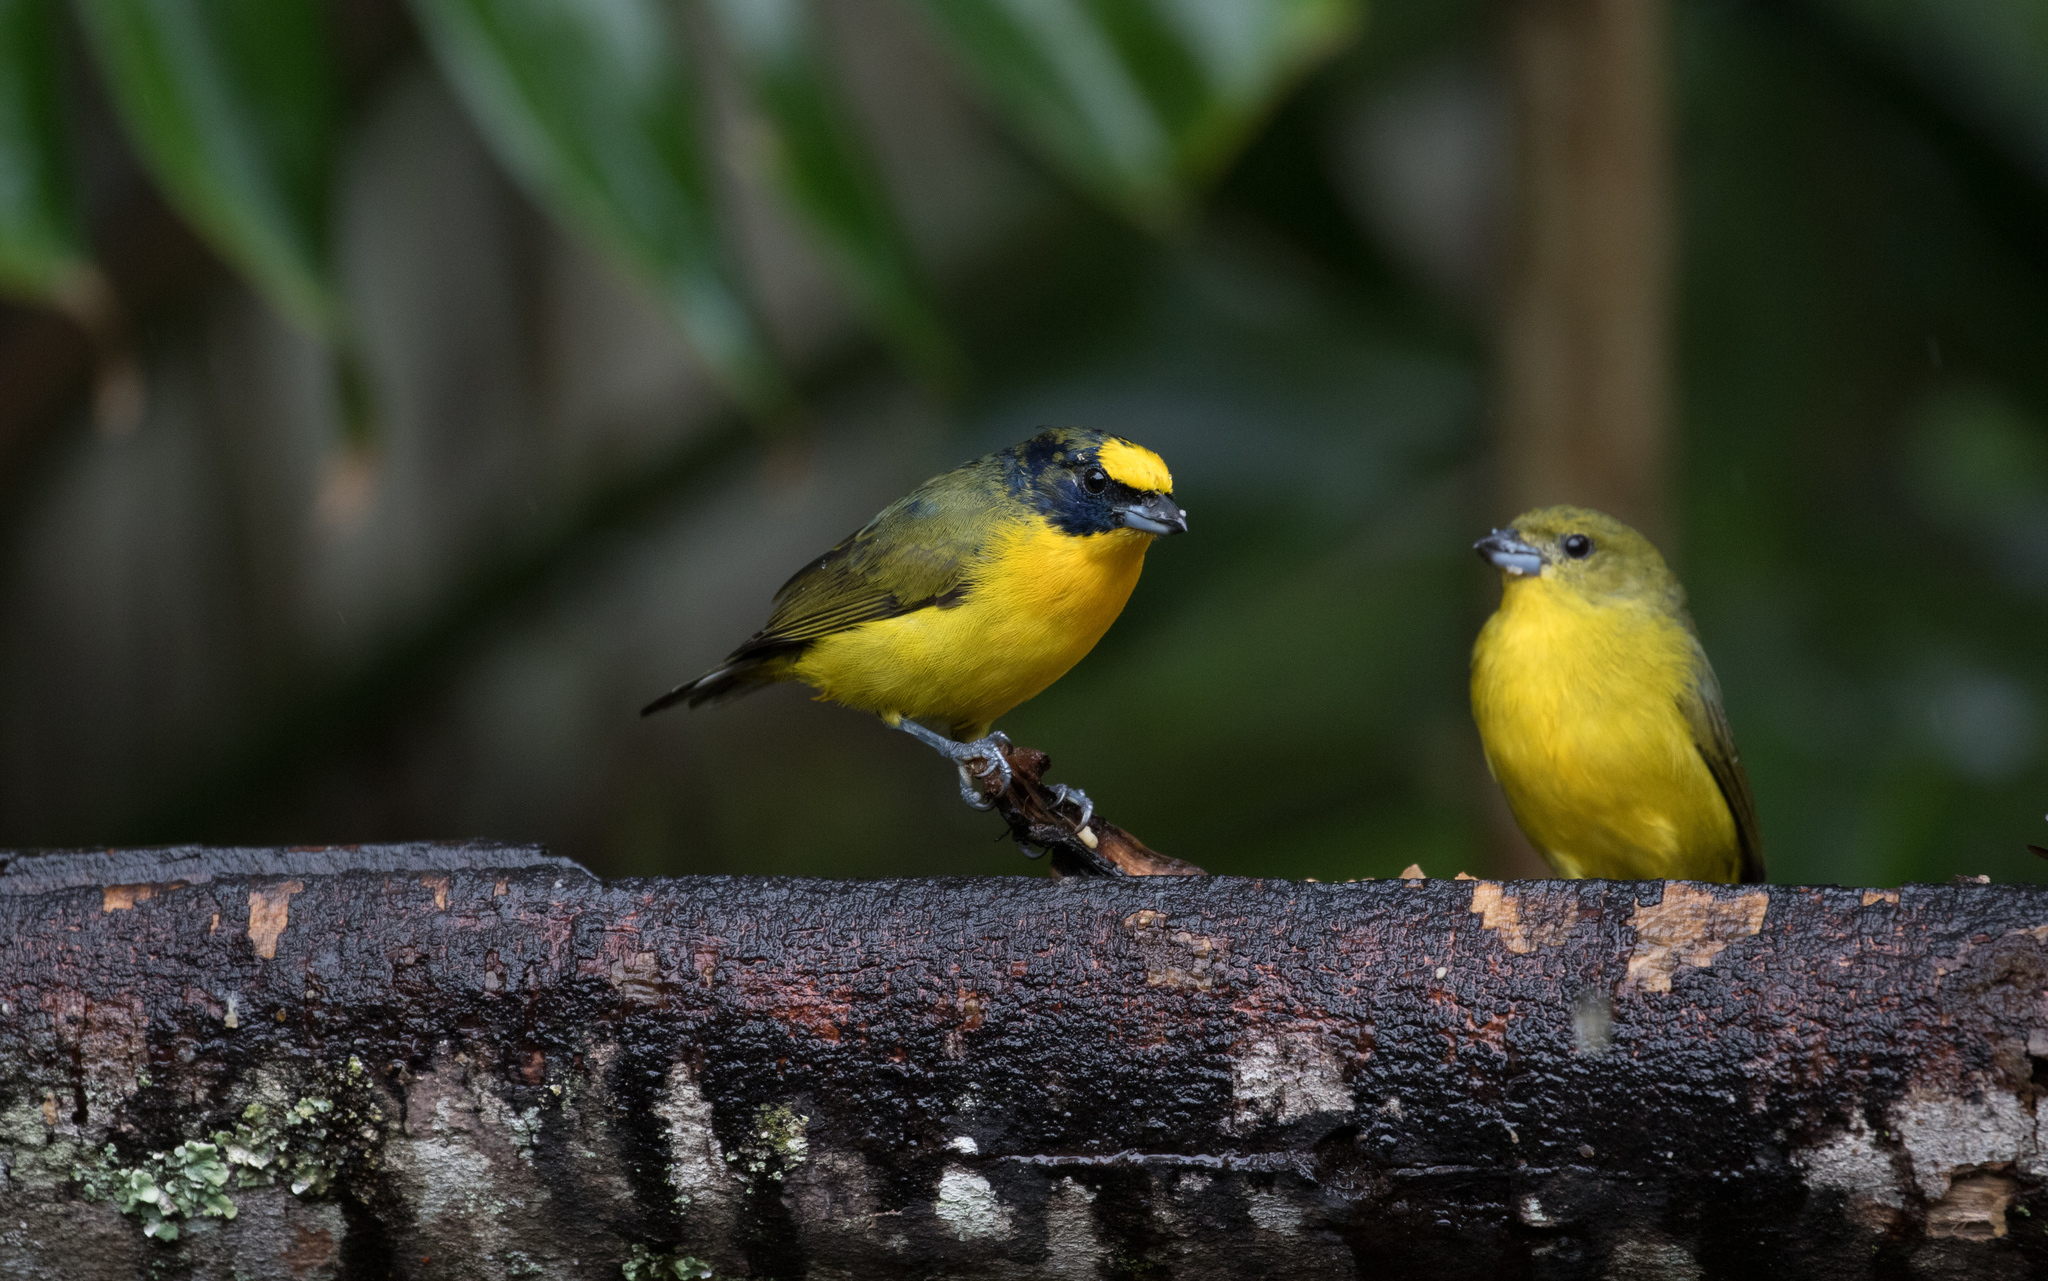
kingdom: Animalia
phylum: Chordata
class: Aves
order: Passeriformes
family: Fringillidae
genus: Euphonia
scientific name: Euphonia laniirostris
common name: Thick-billed euphonia
